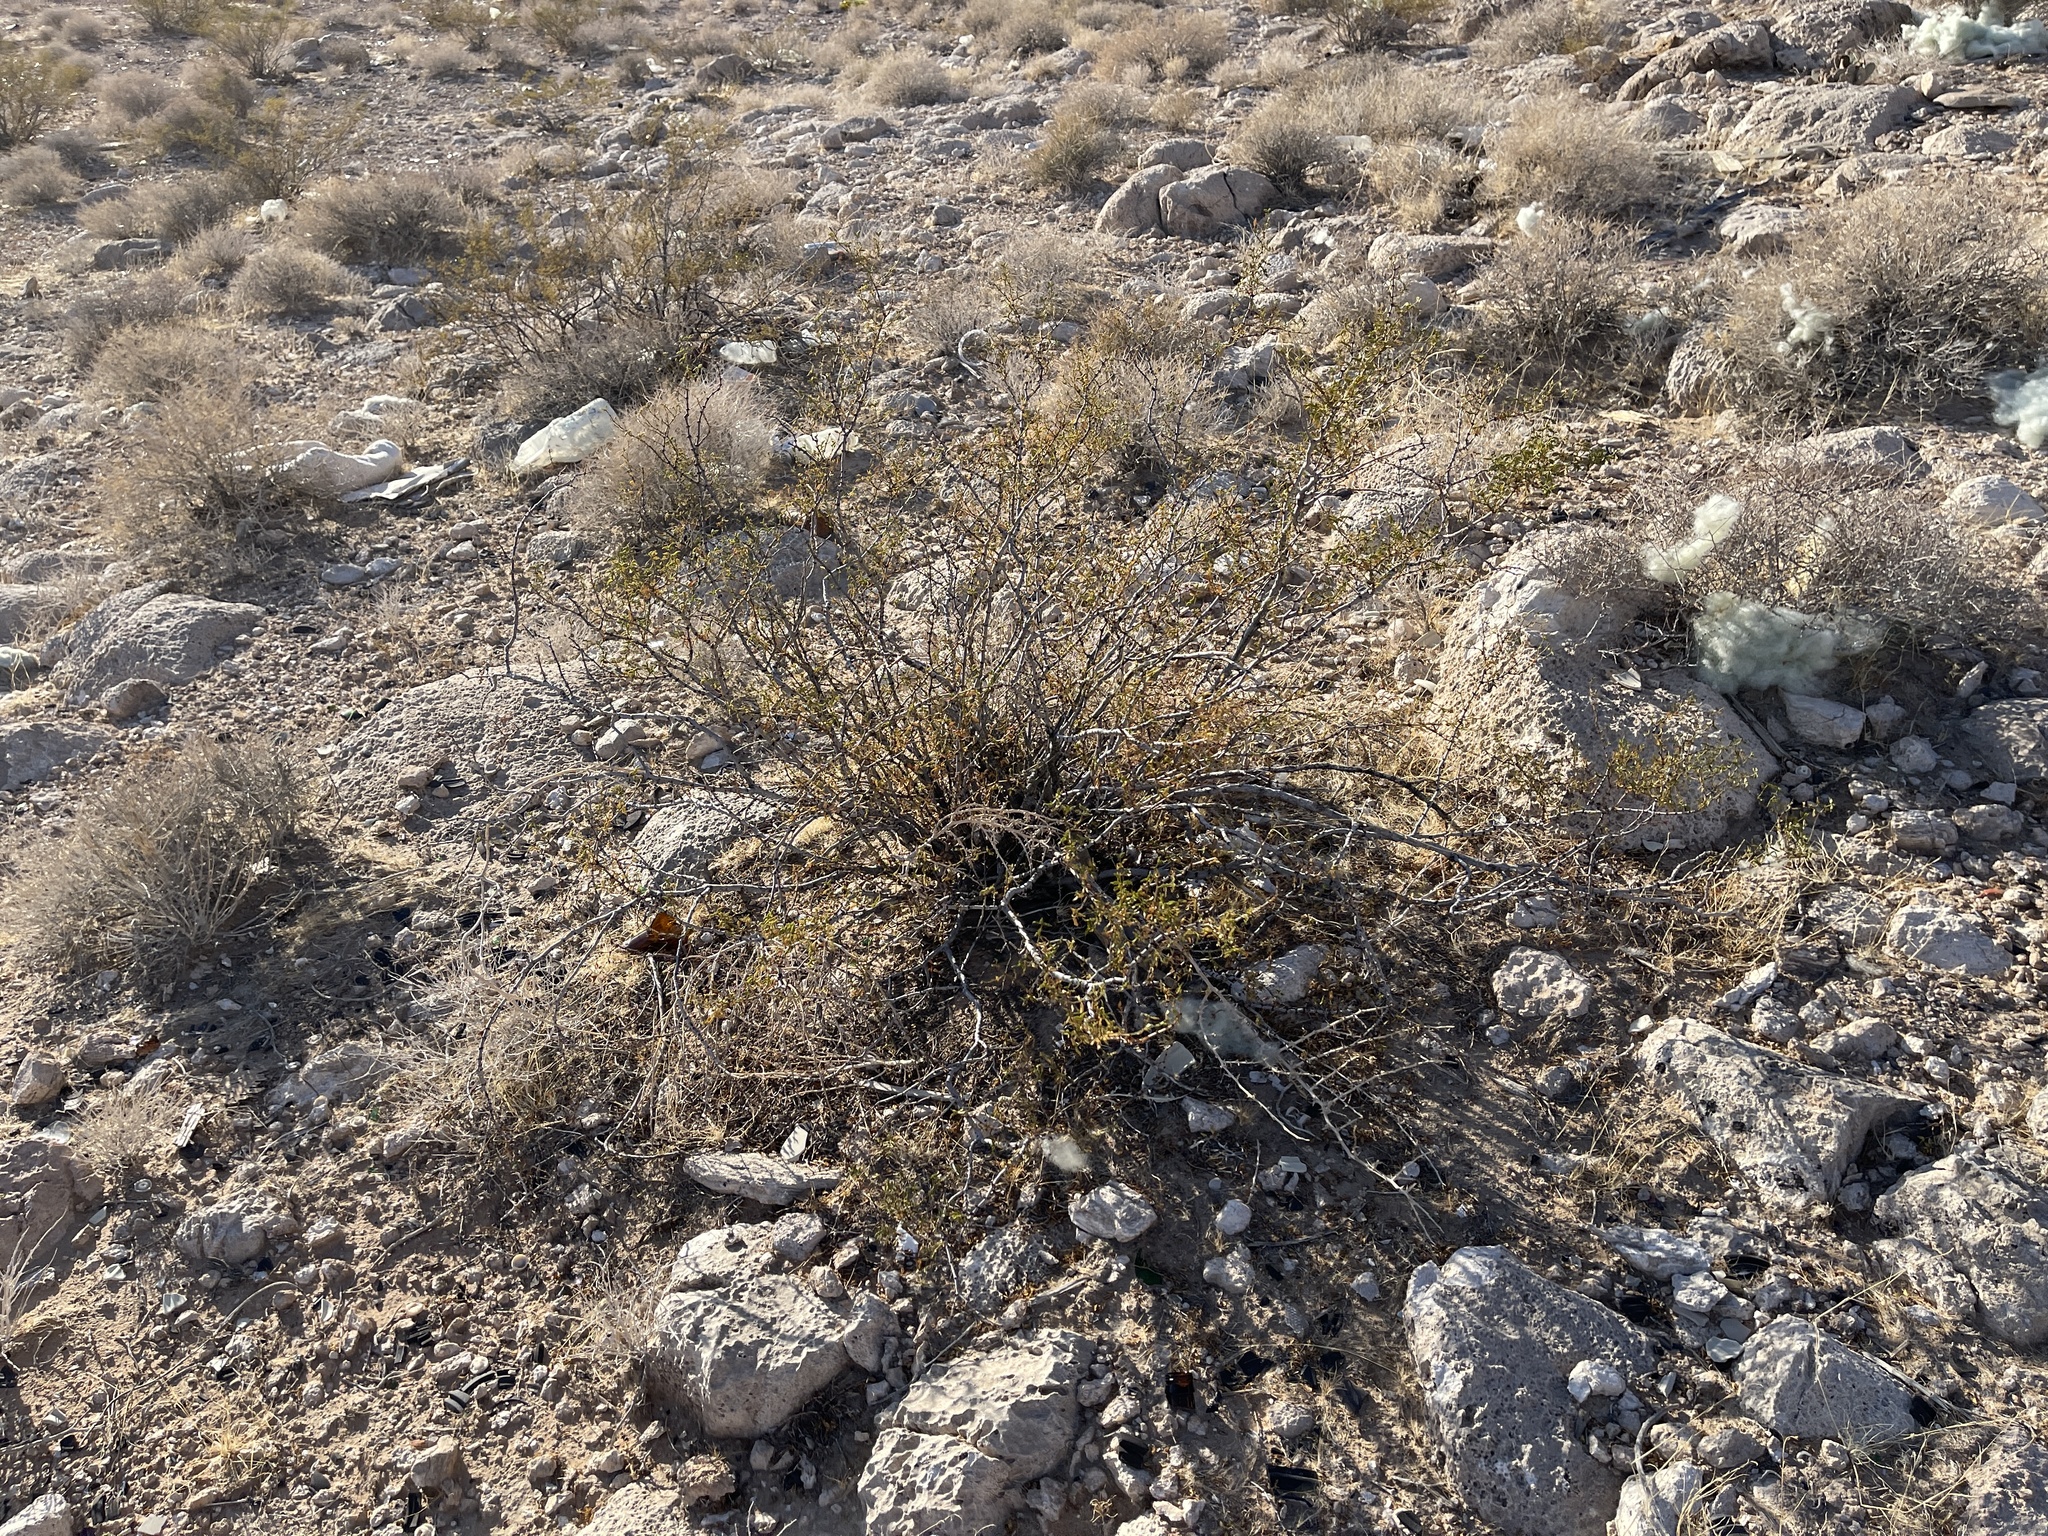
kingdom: Plantae
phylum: Tracheophyta
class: Magnoliopsida
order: Zygophyllales
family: Zygophyllaceae
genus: Larrea
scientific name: Larrea tridentata
